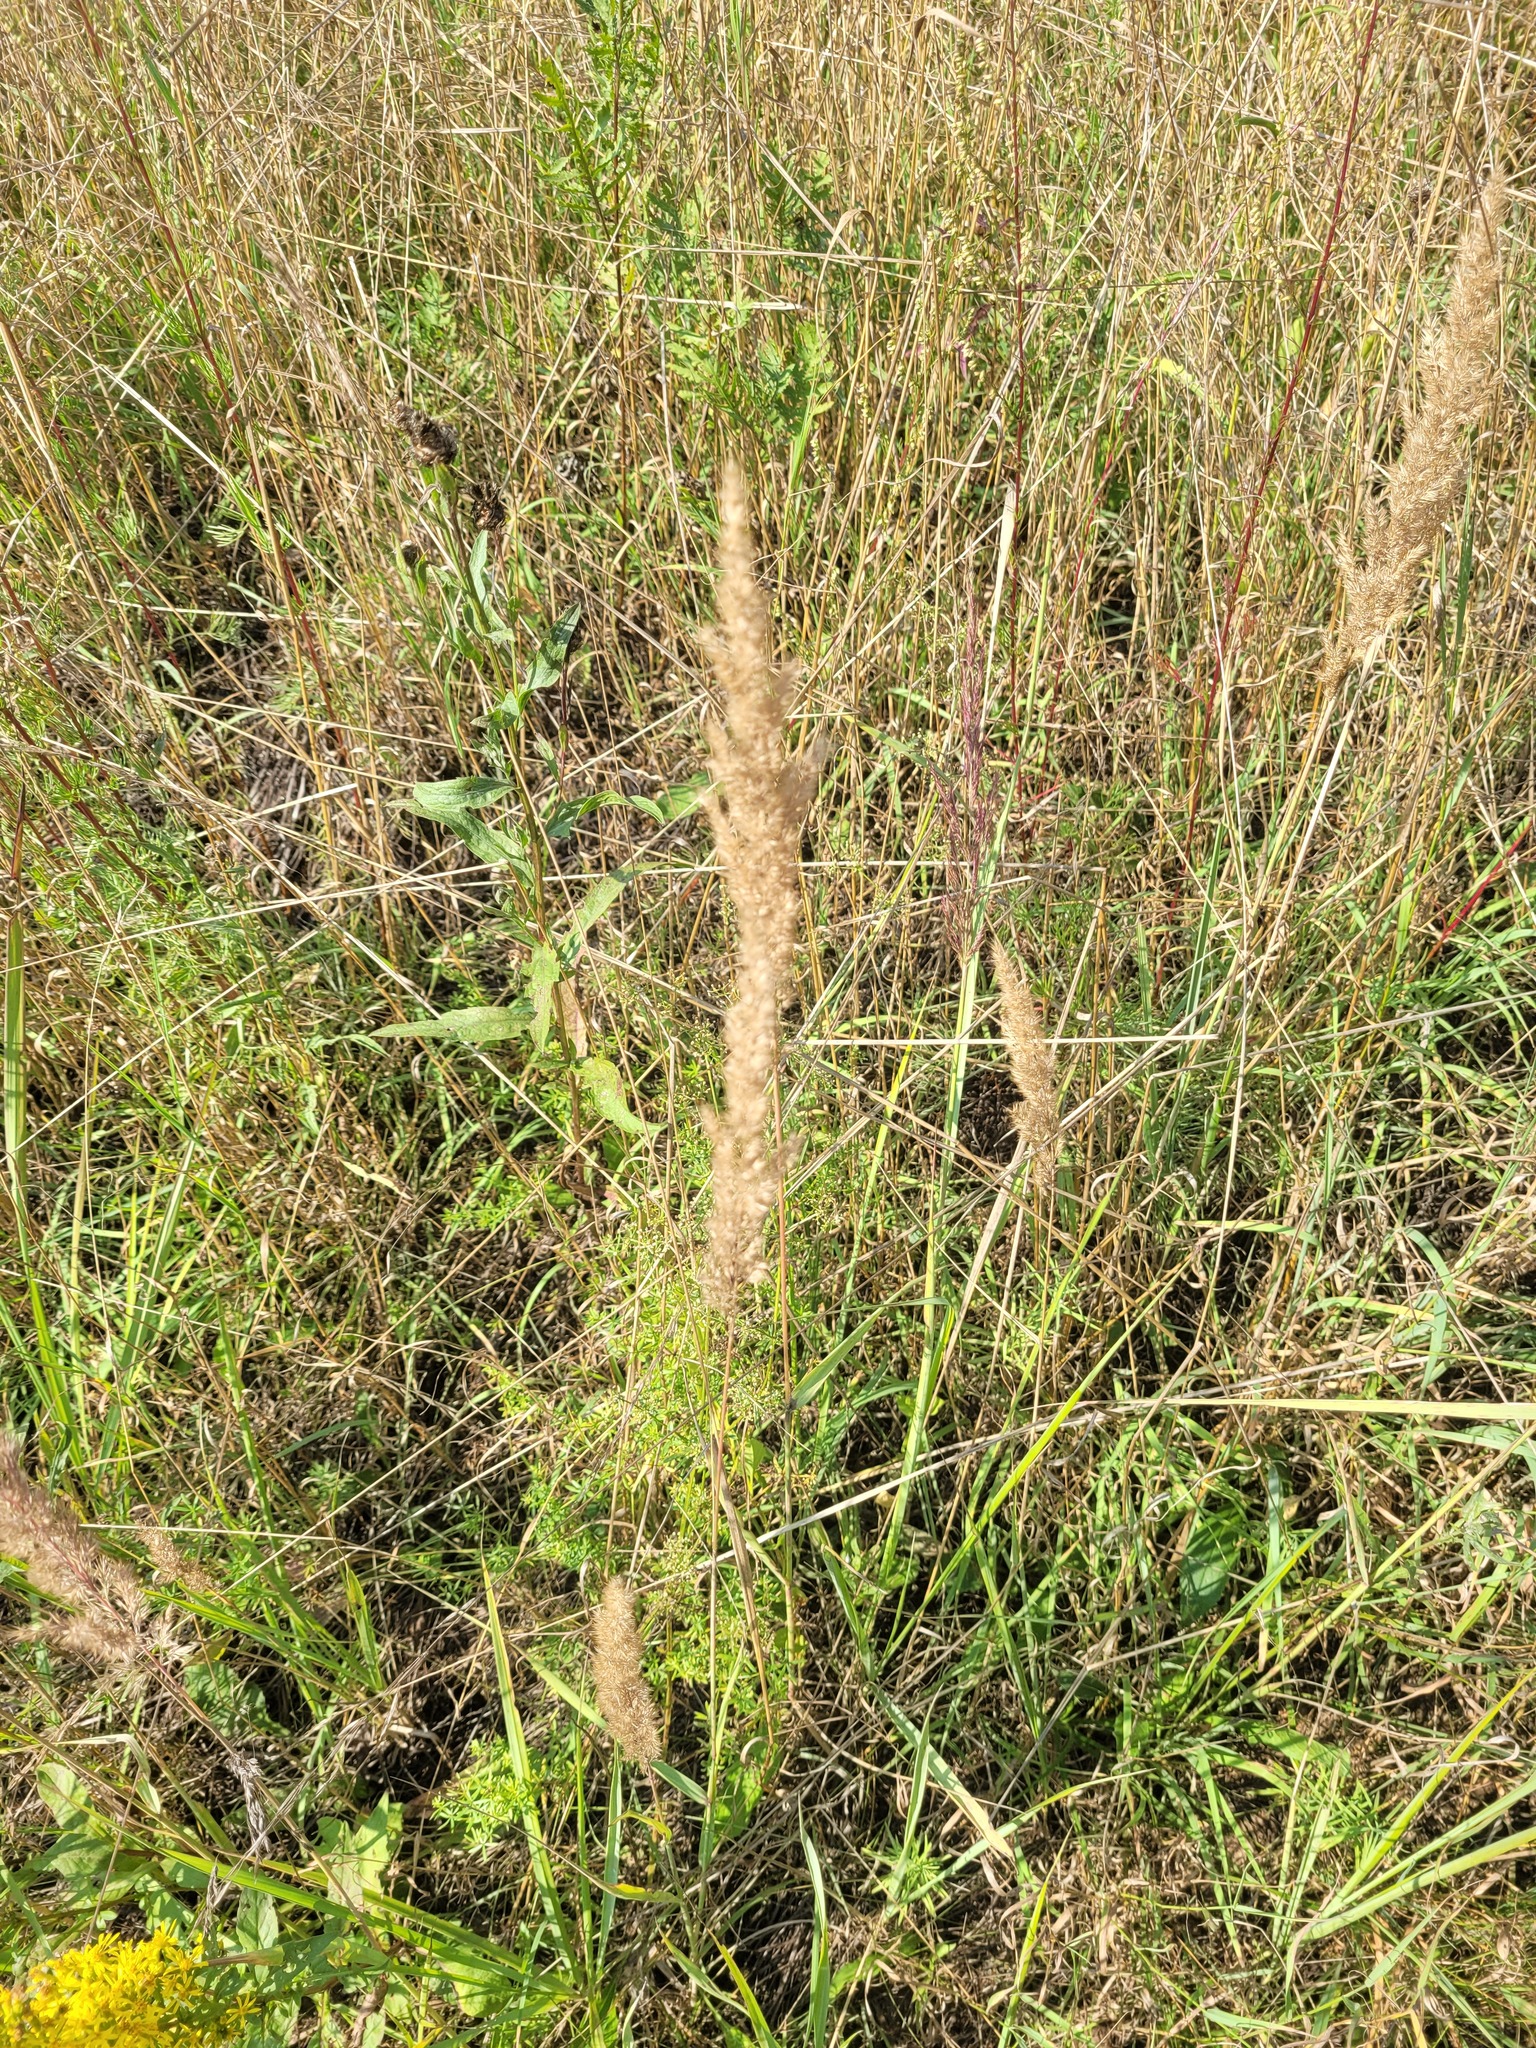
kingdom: Plantae
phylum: Tracheophyta
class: Liliopsida
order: Poales
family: Poaceae
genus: Calamagrostis
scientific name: Calamagrostis epigejos
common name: Wood small-reed
